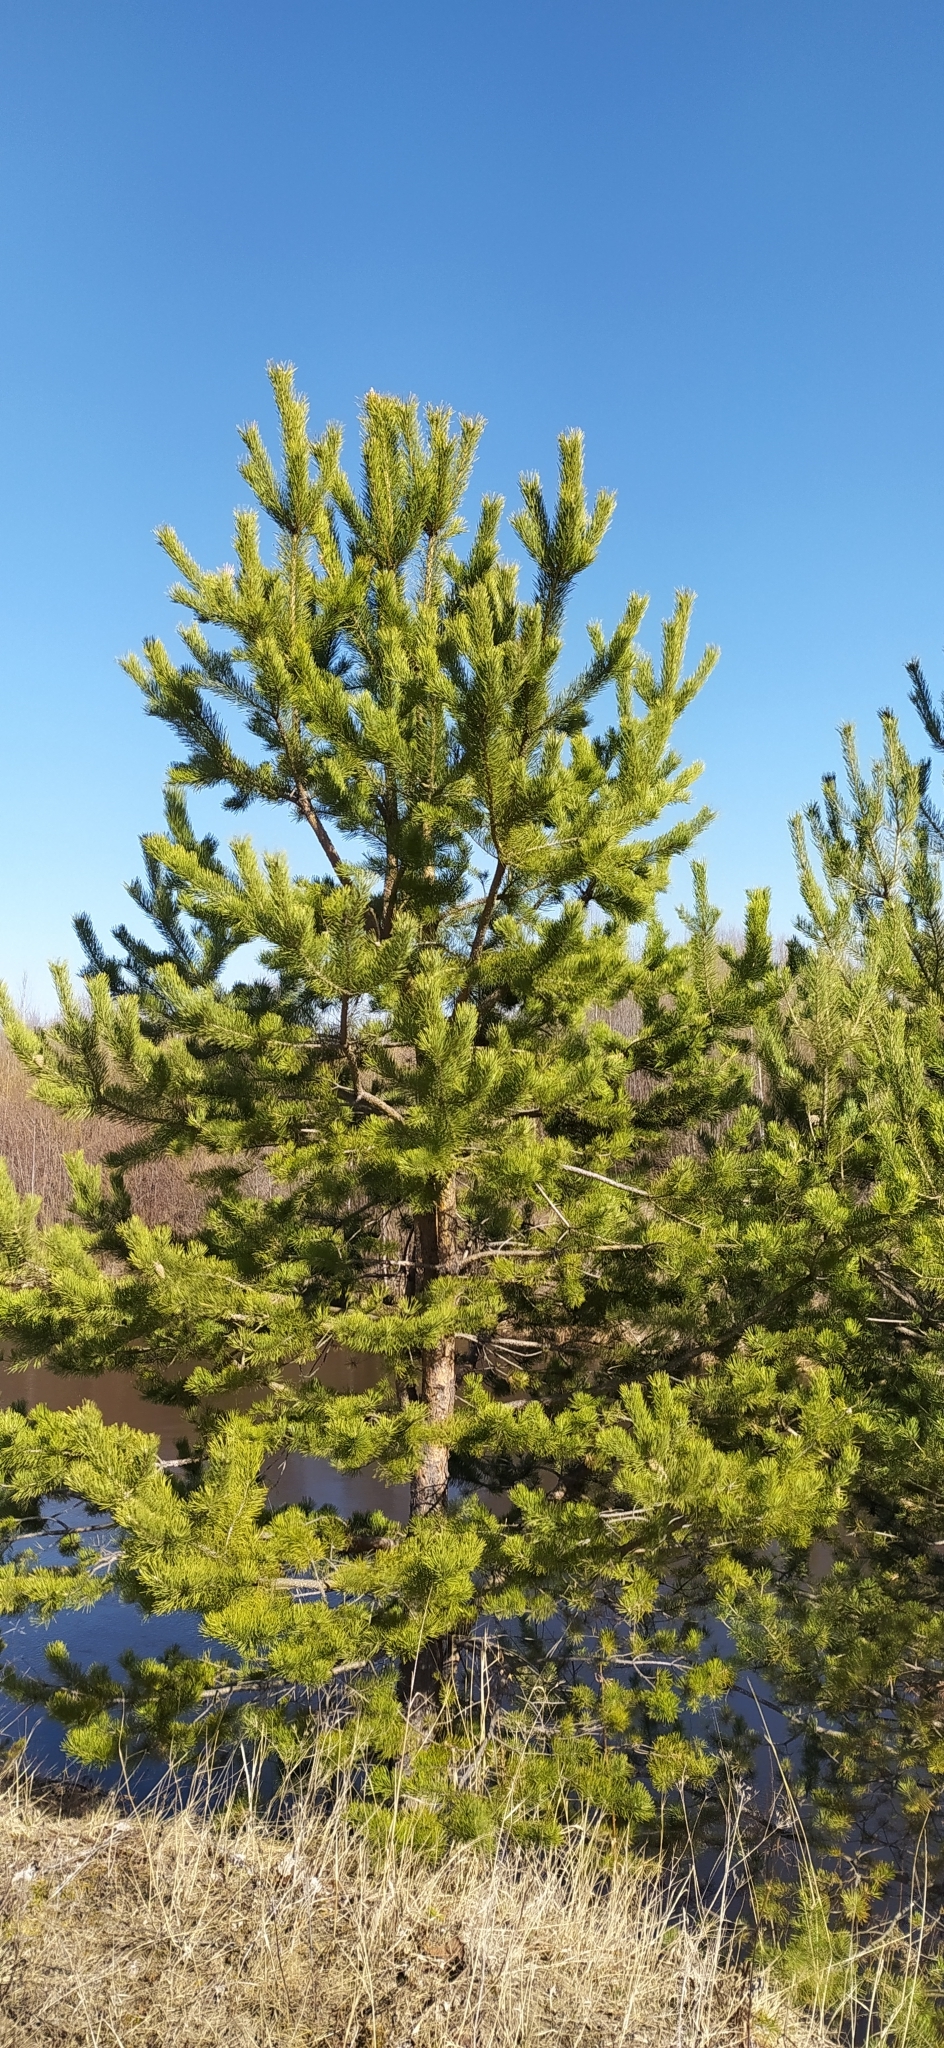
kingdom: Plantae
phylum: Tracheophyta
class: Pinopsida
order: Pinales
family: Pinaceae
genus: Pinus
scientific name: Pinus sylvestris
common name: Scots pine
